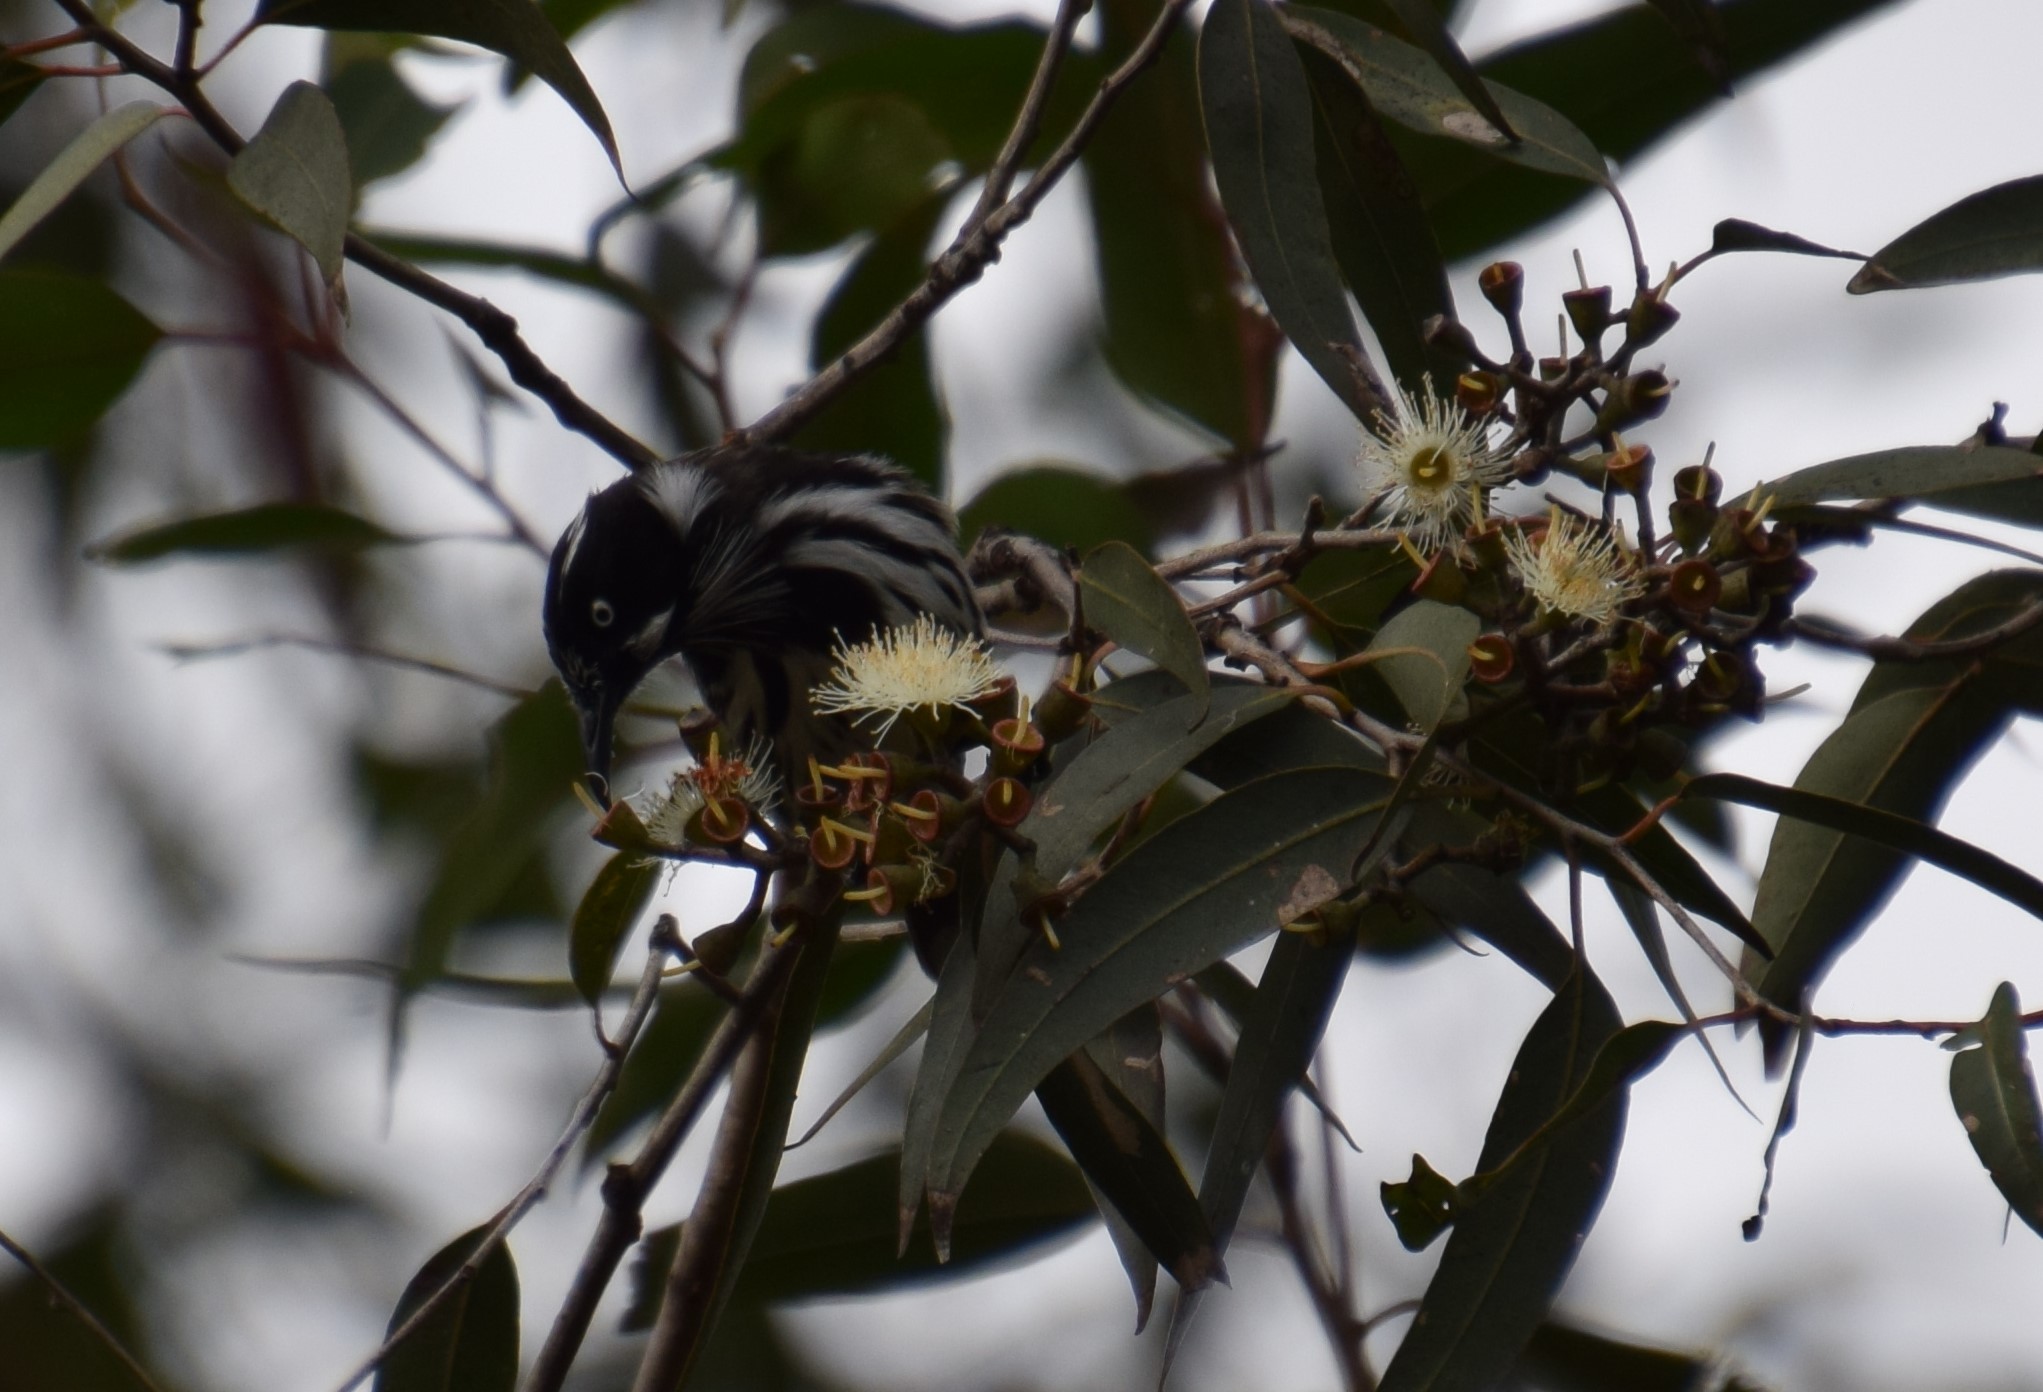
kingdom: Animalia
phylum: Chordata
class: Aves
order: Passeriformes
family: Meliphagidae
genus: Phylidonyris
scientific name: Phylidonyris novaehollandiae
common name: New holland honeyeater
